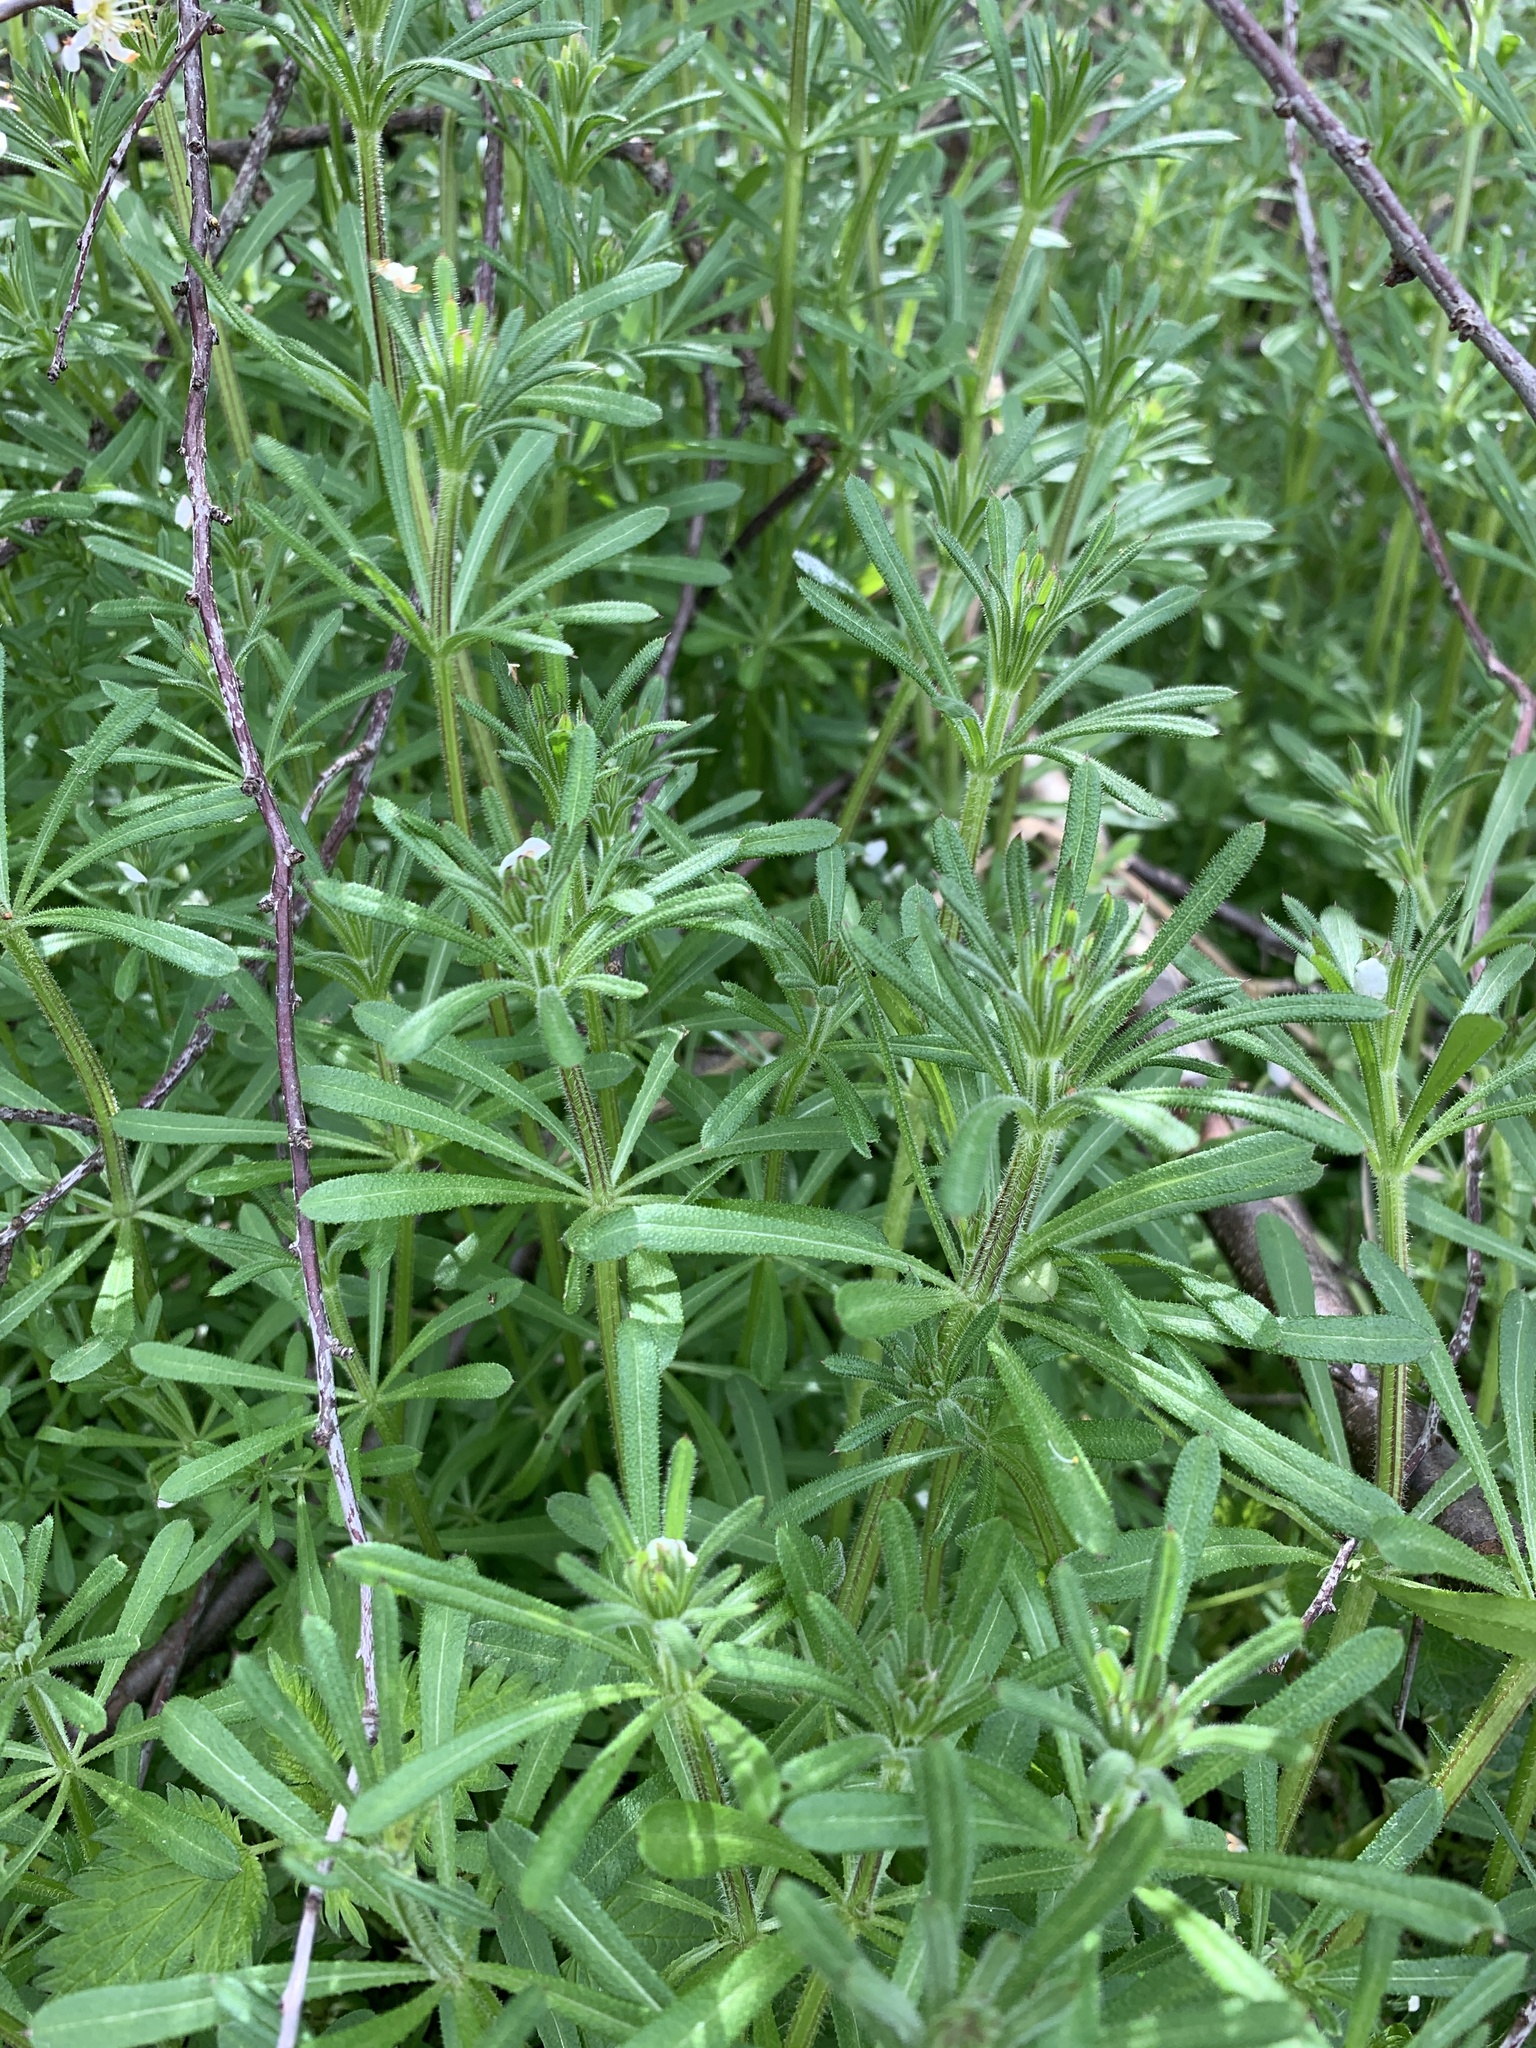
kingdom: Plantae
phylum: Tracheophyta
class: Magnoliopsida
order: Gentianales
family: Rubiaceae
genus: Galium
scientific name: Galium aparine
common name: Cleavers
